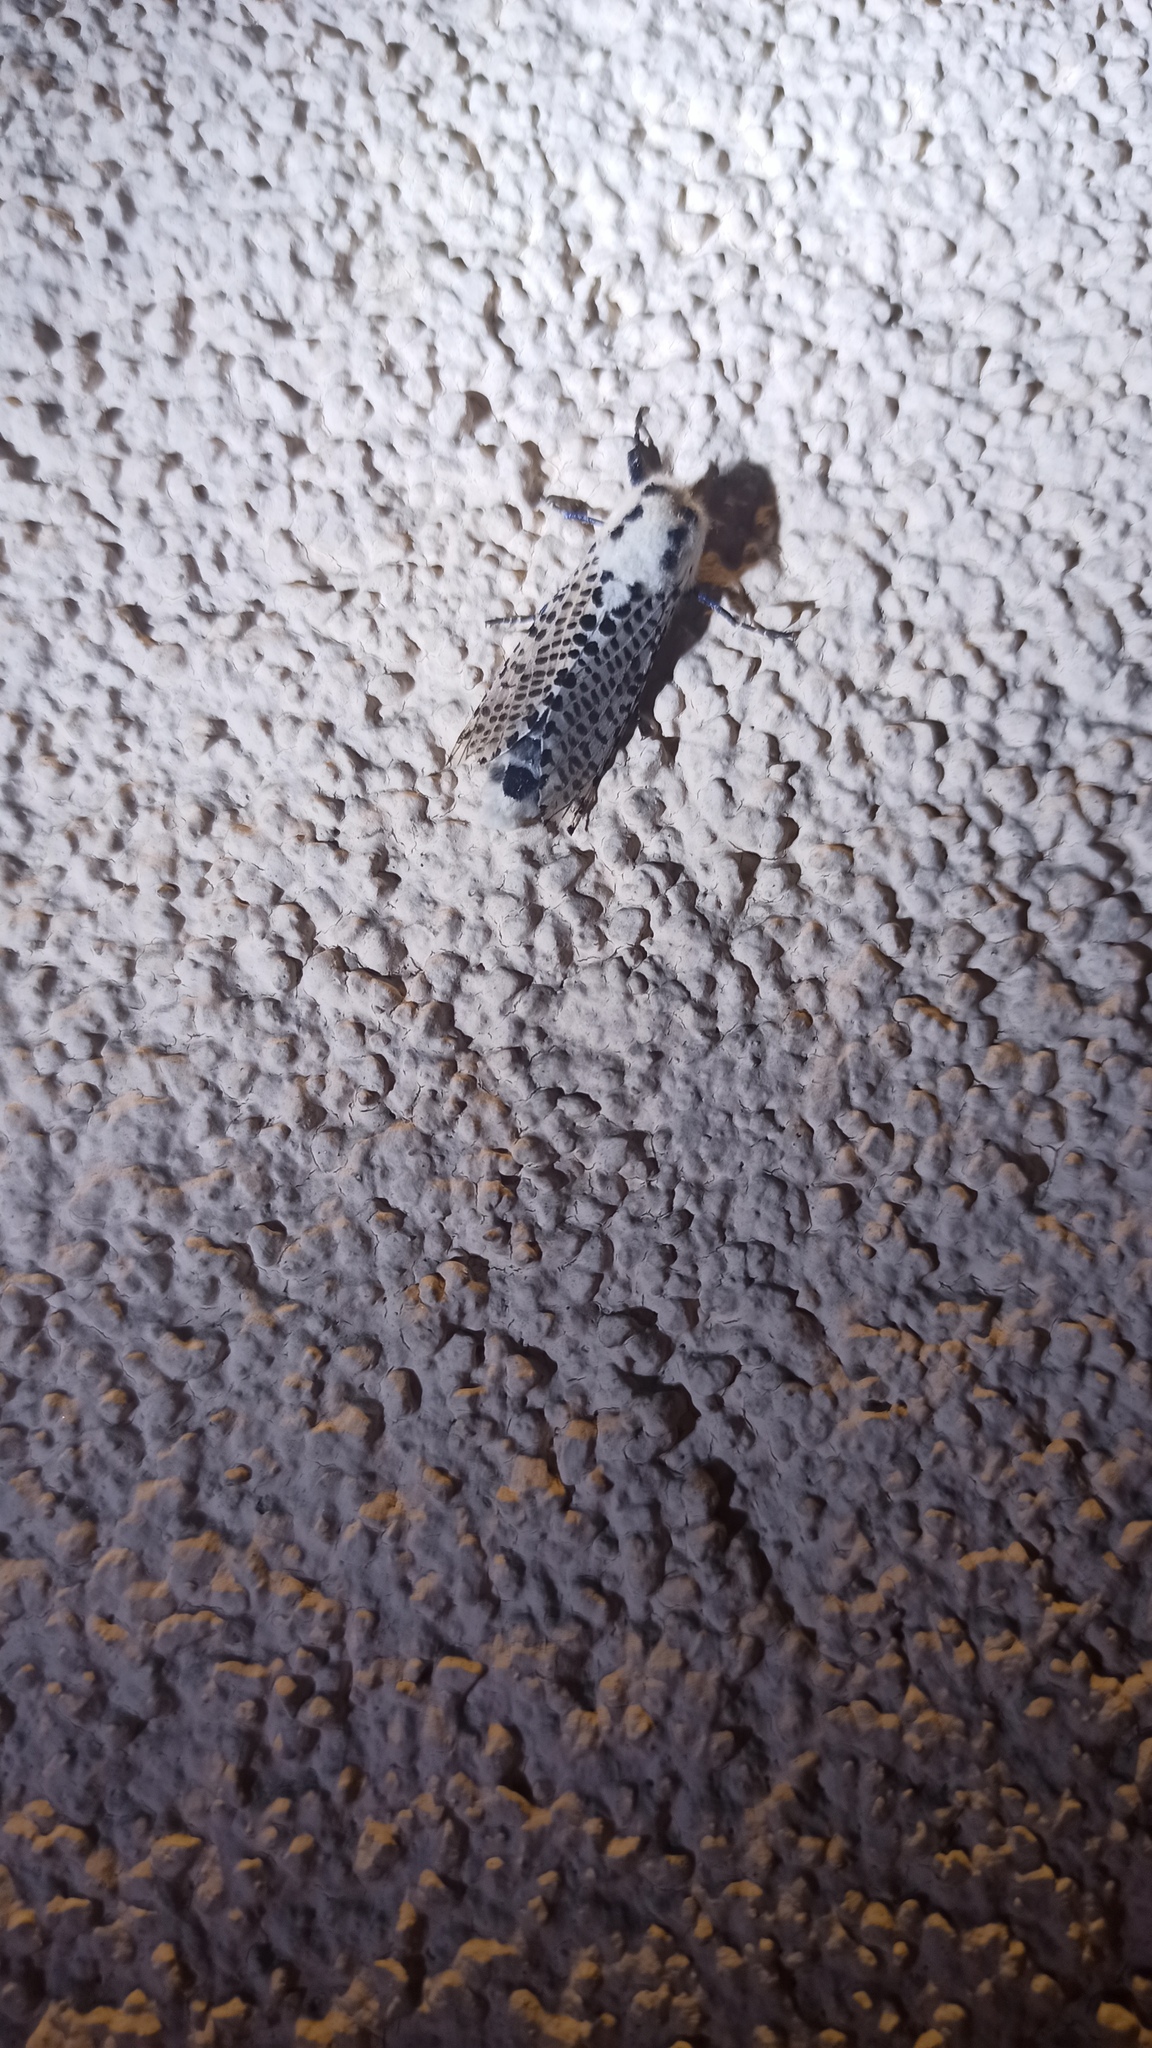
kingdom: Animalia
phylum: Arthropoda
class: Insecta
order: Lepidoptera
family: Cossidae
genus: Zeuzera
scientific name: Zeuzera pyrina
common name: Leopard moth
